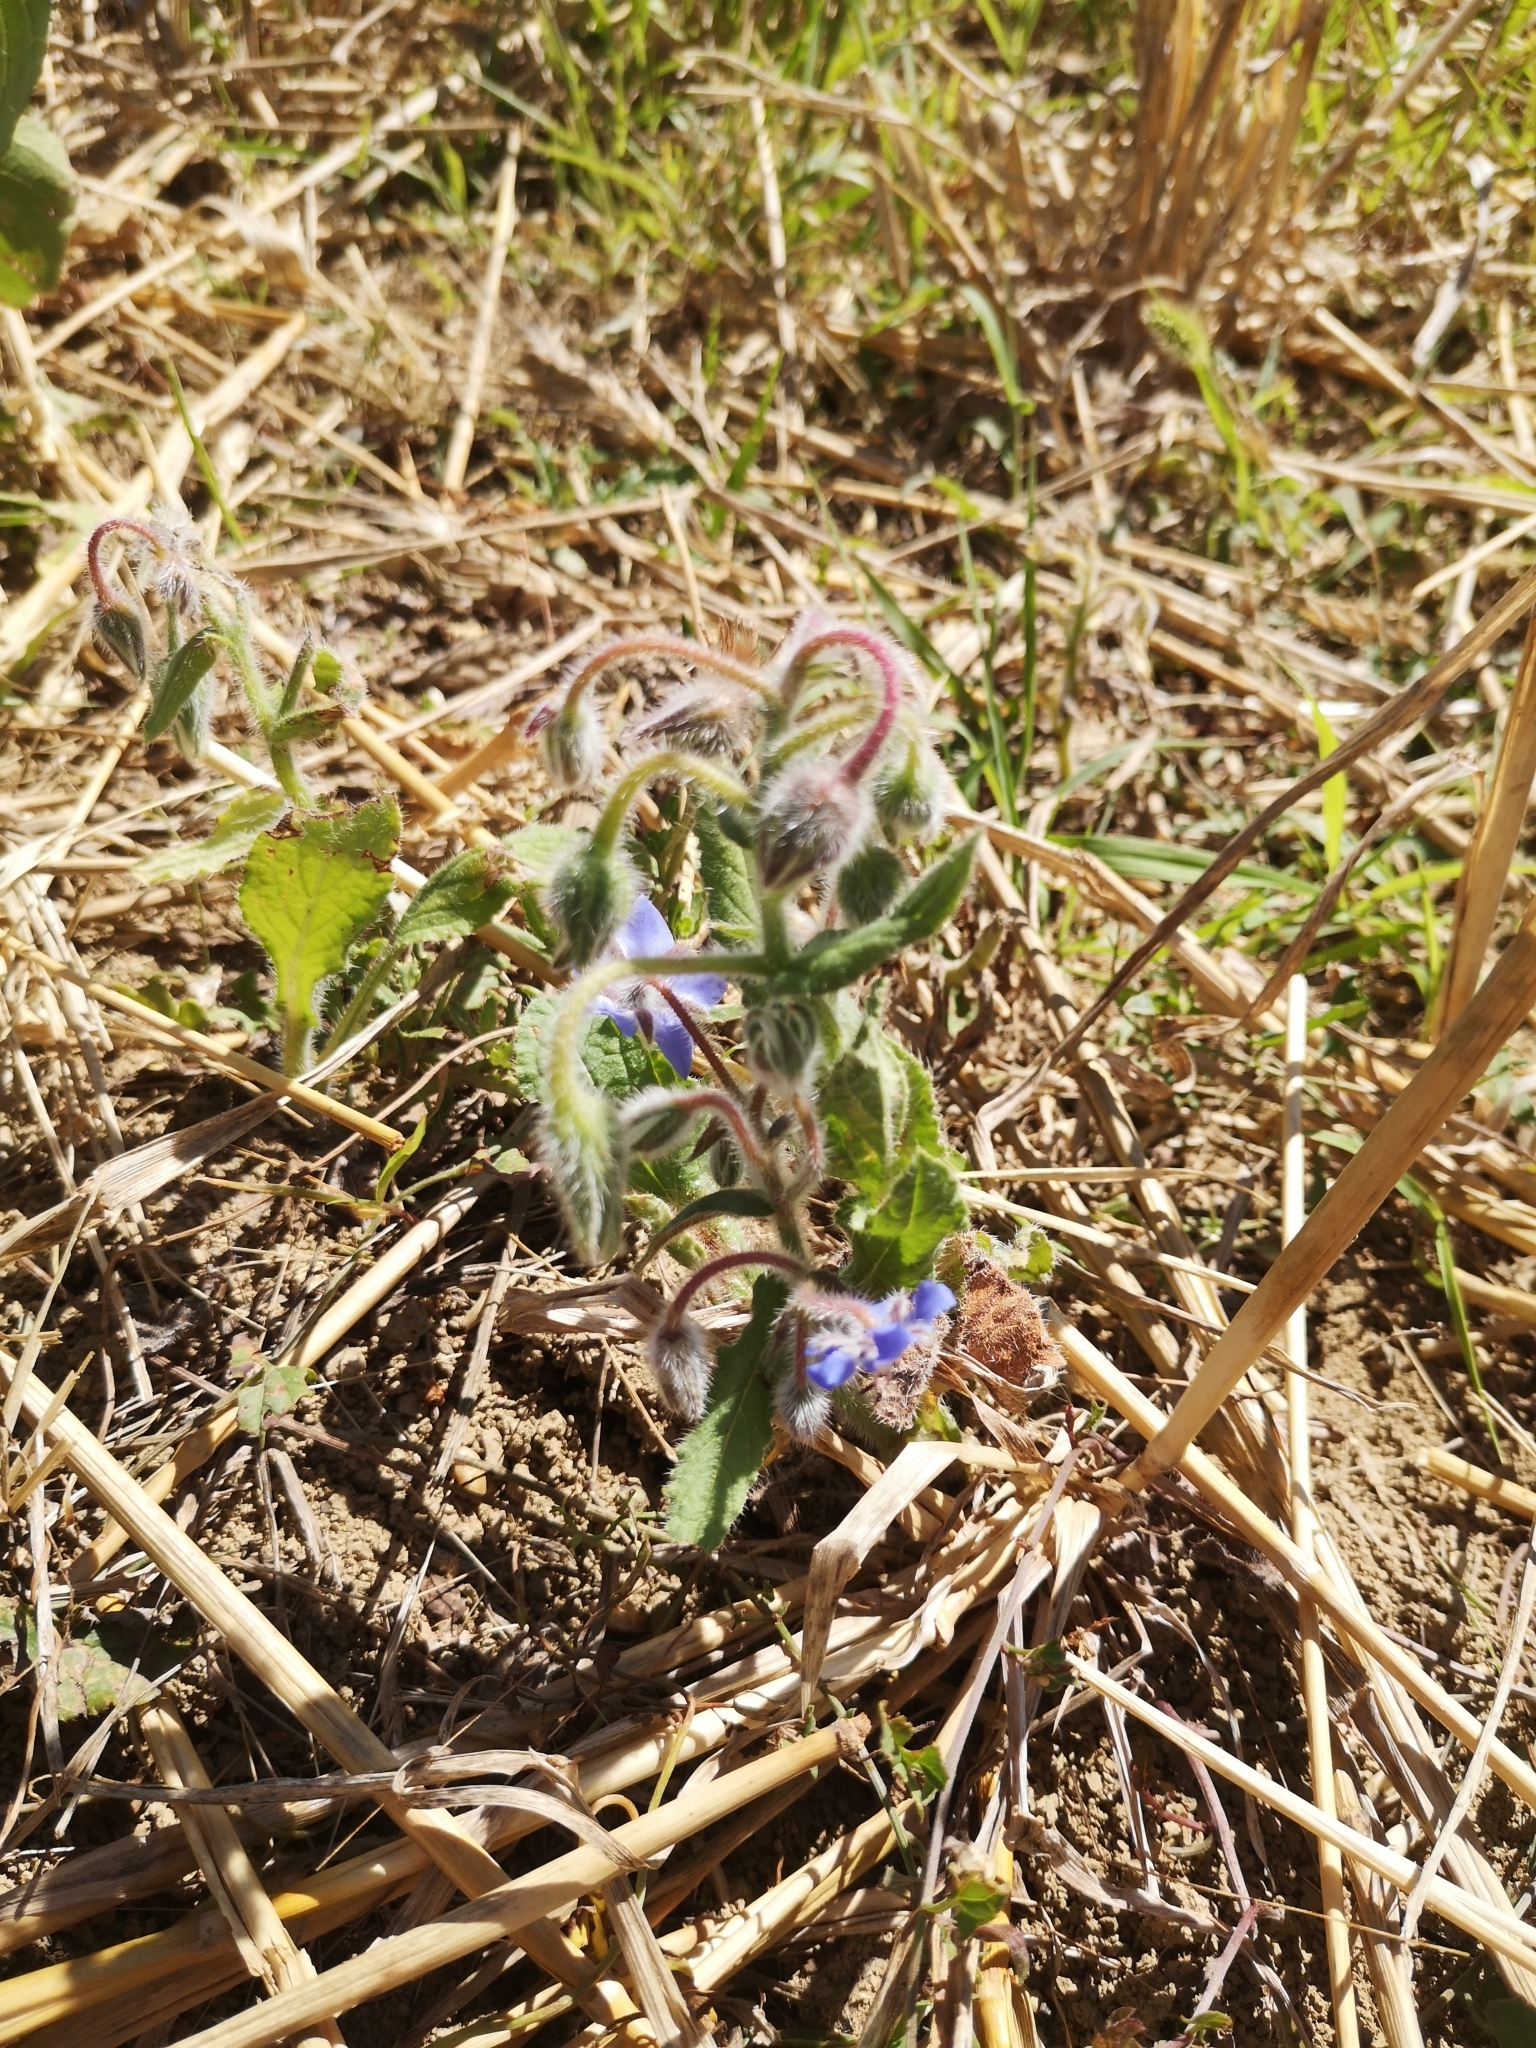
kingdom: Plantae
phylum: Tracheophyta
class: Magnoliopsida
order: Boraginales
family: Boraginaceae
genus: Borago
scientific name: Borago officinalis
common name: Borage
